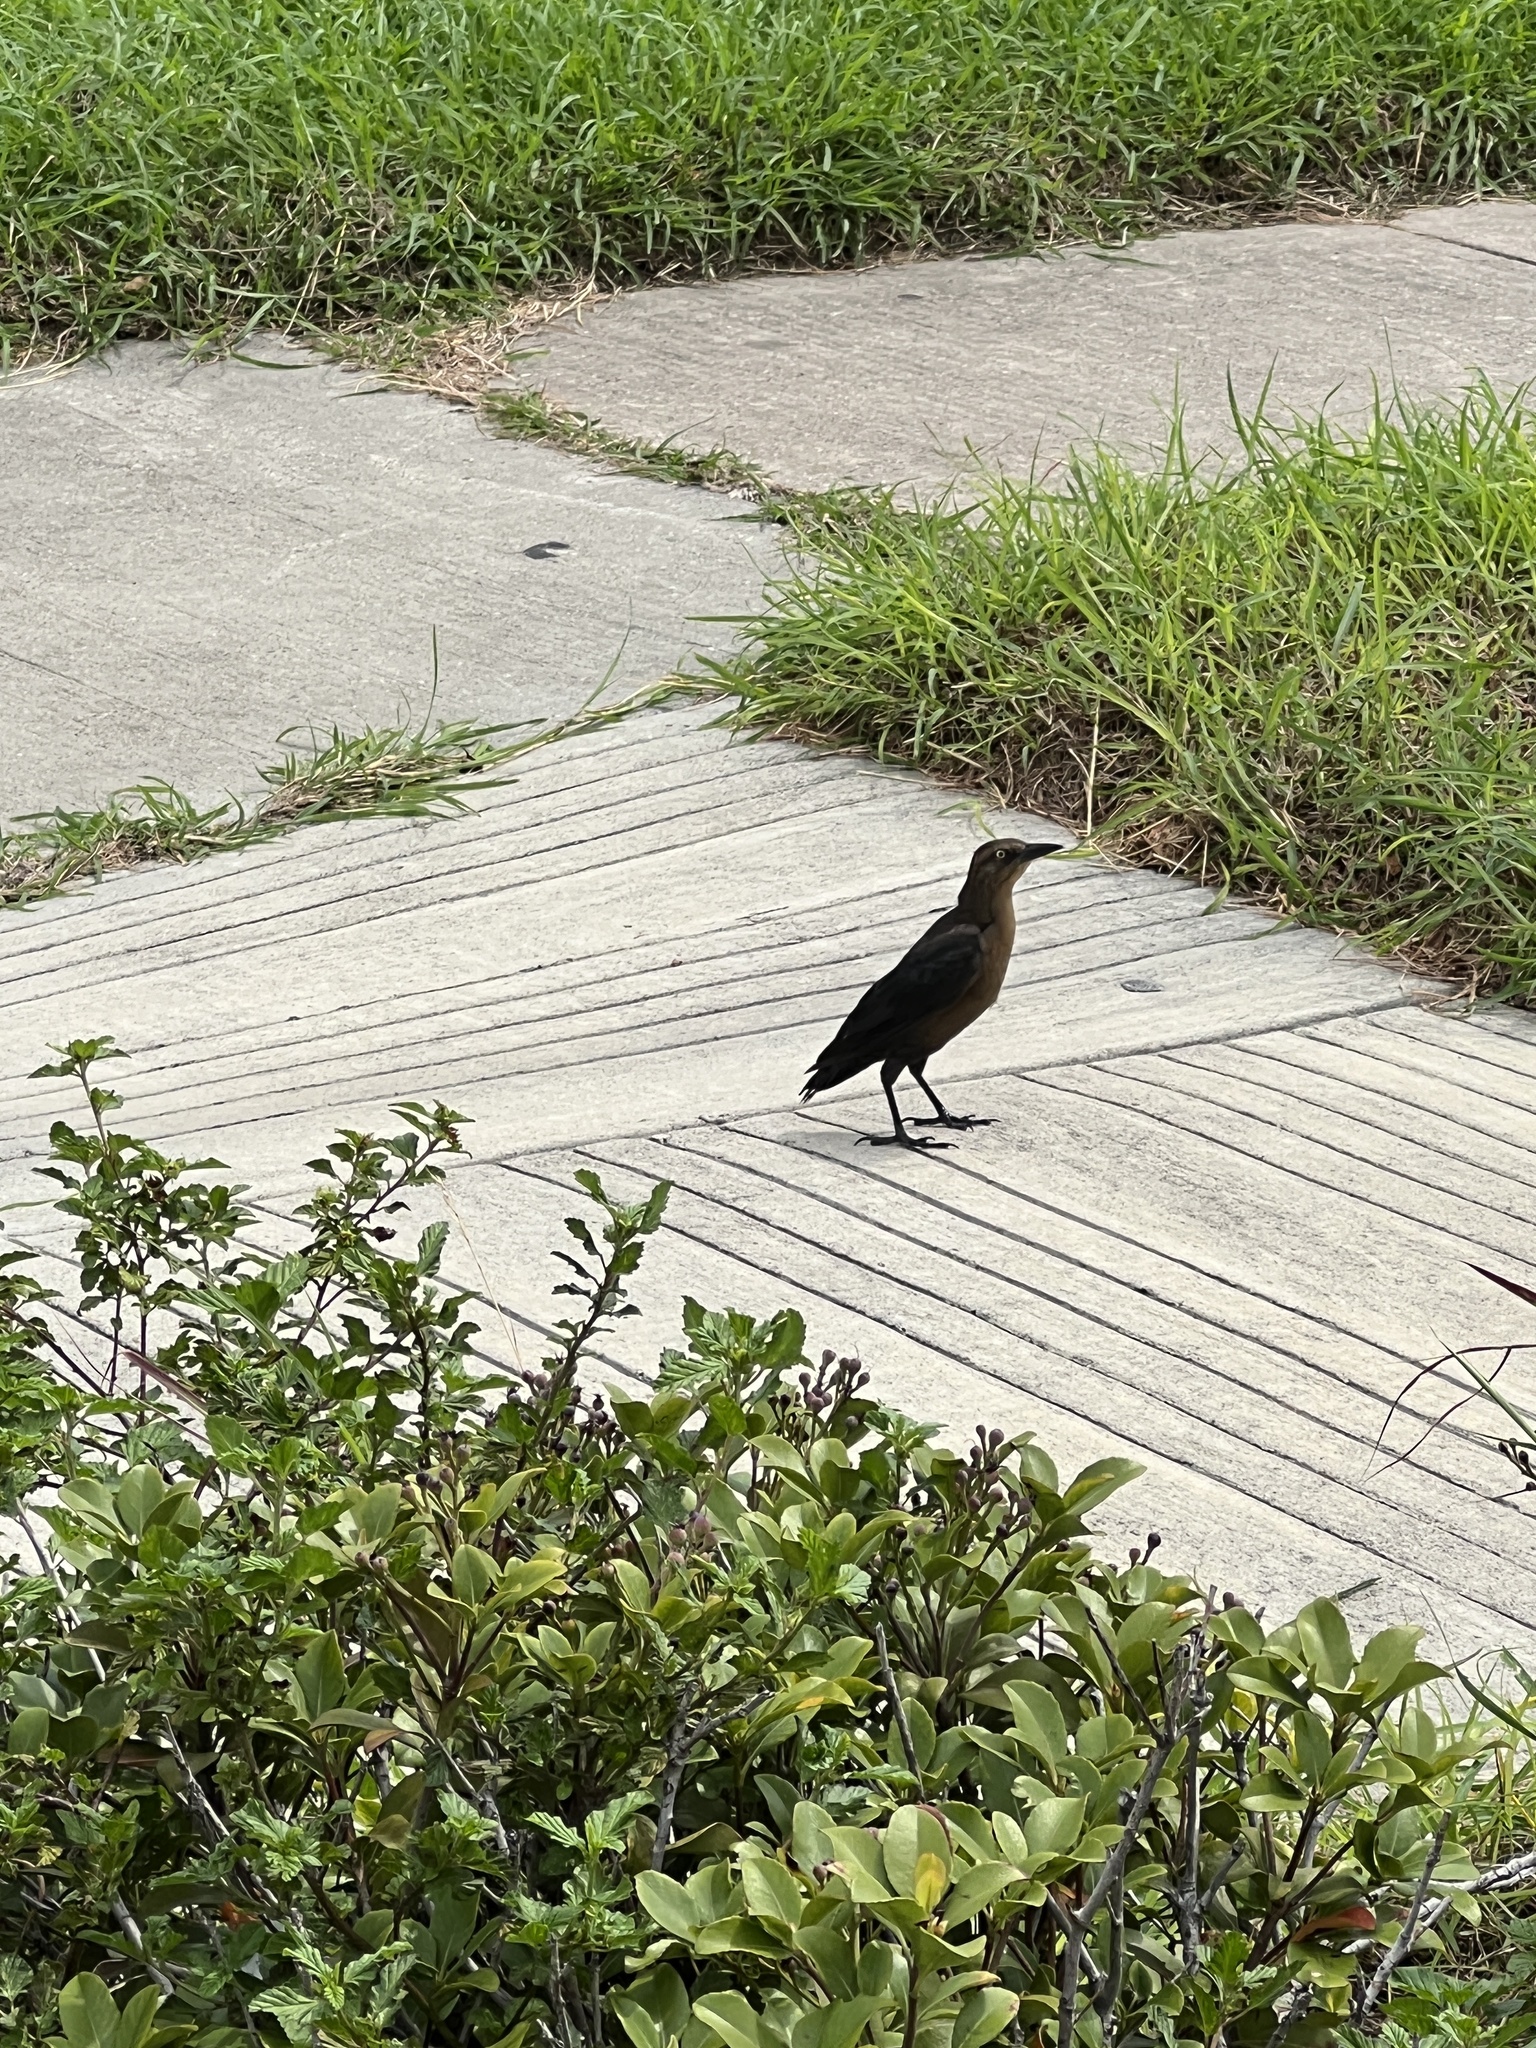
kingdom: Animalia
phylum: Chordata
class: Aves
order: Passeriformes
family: Icteridae
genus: Quiscalus
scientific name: Quiscalus mexicanus
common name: Great-tailed grackle
